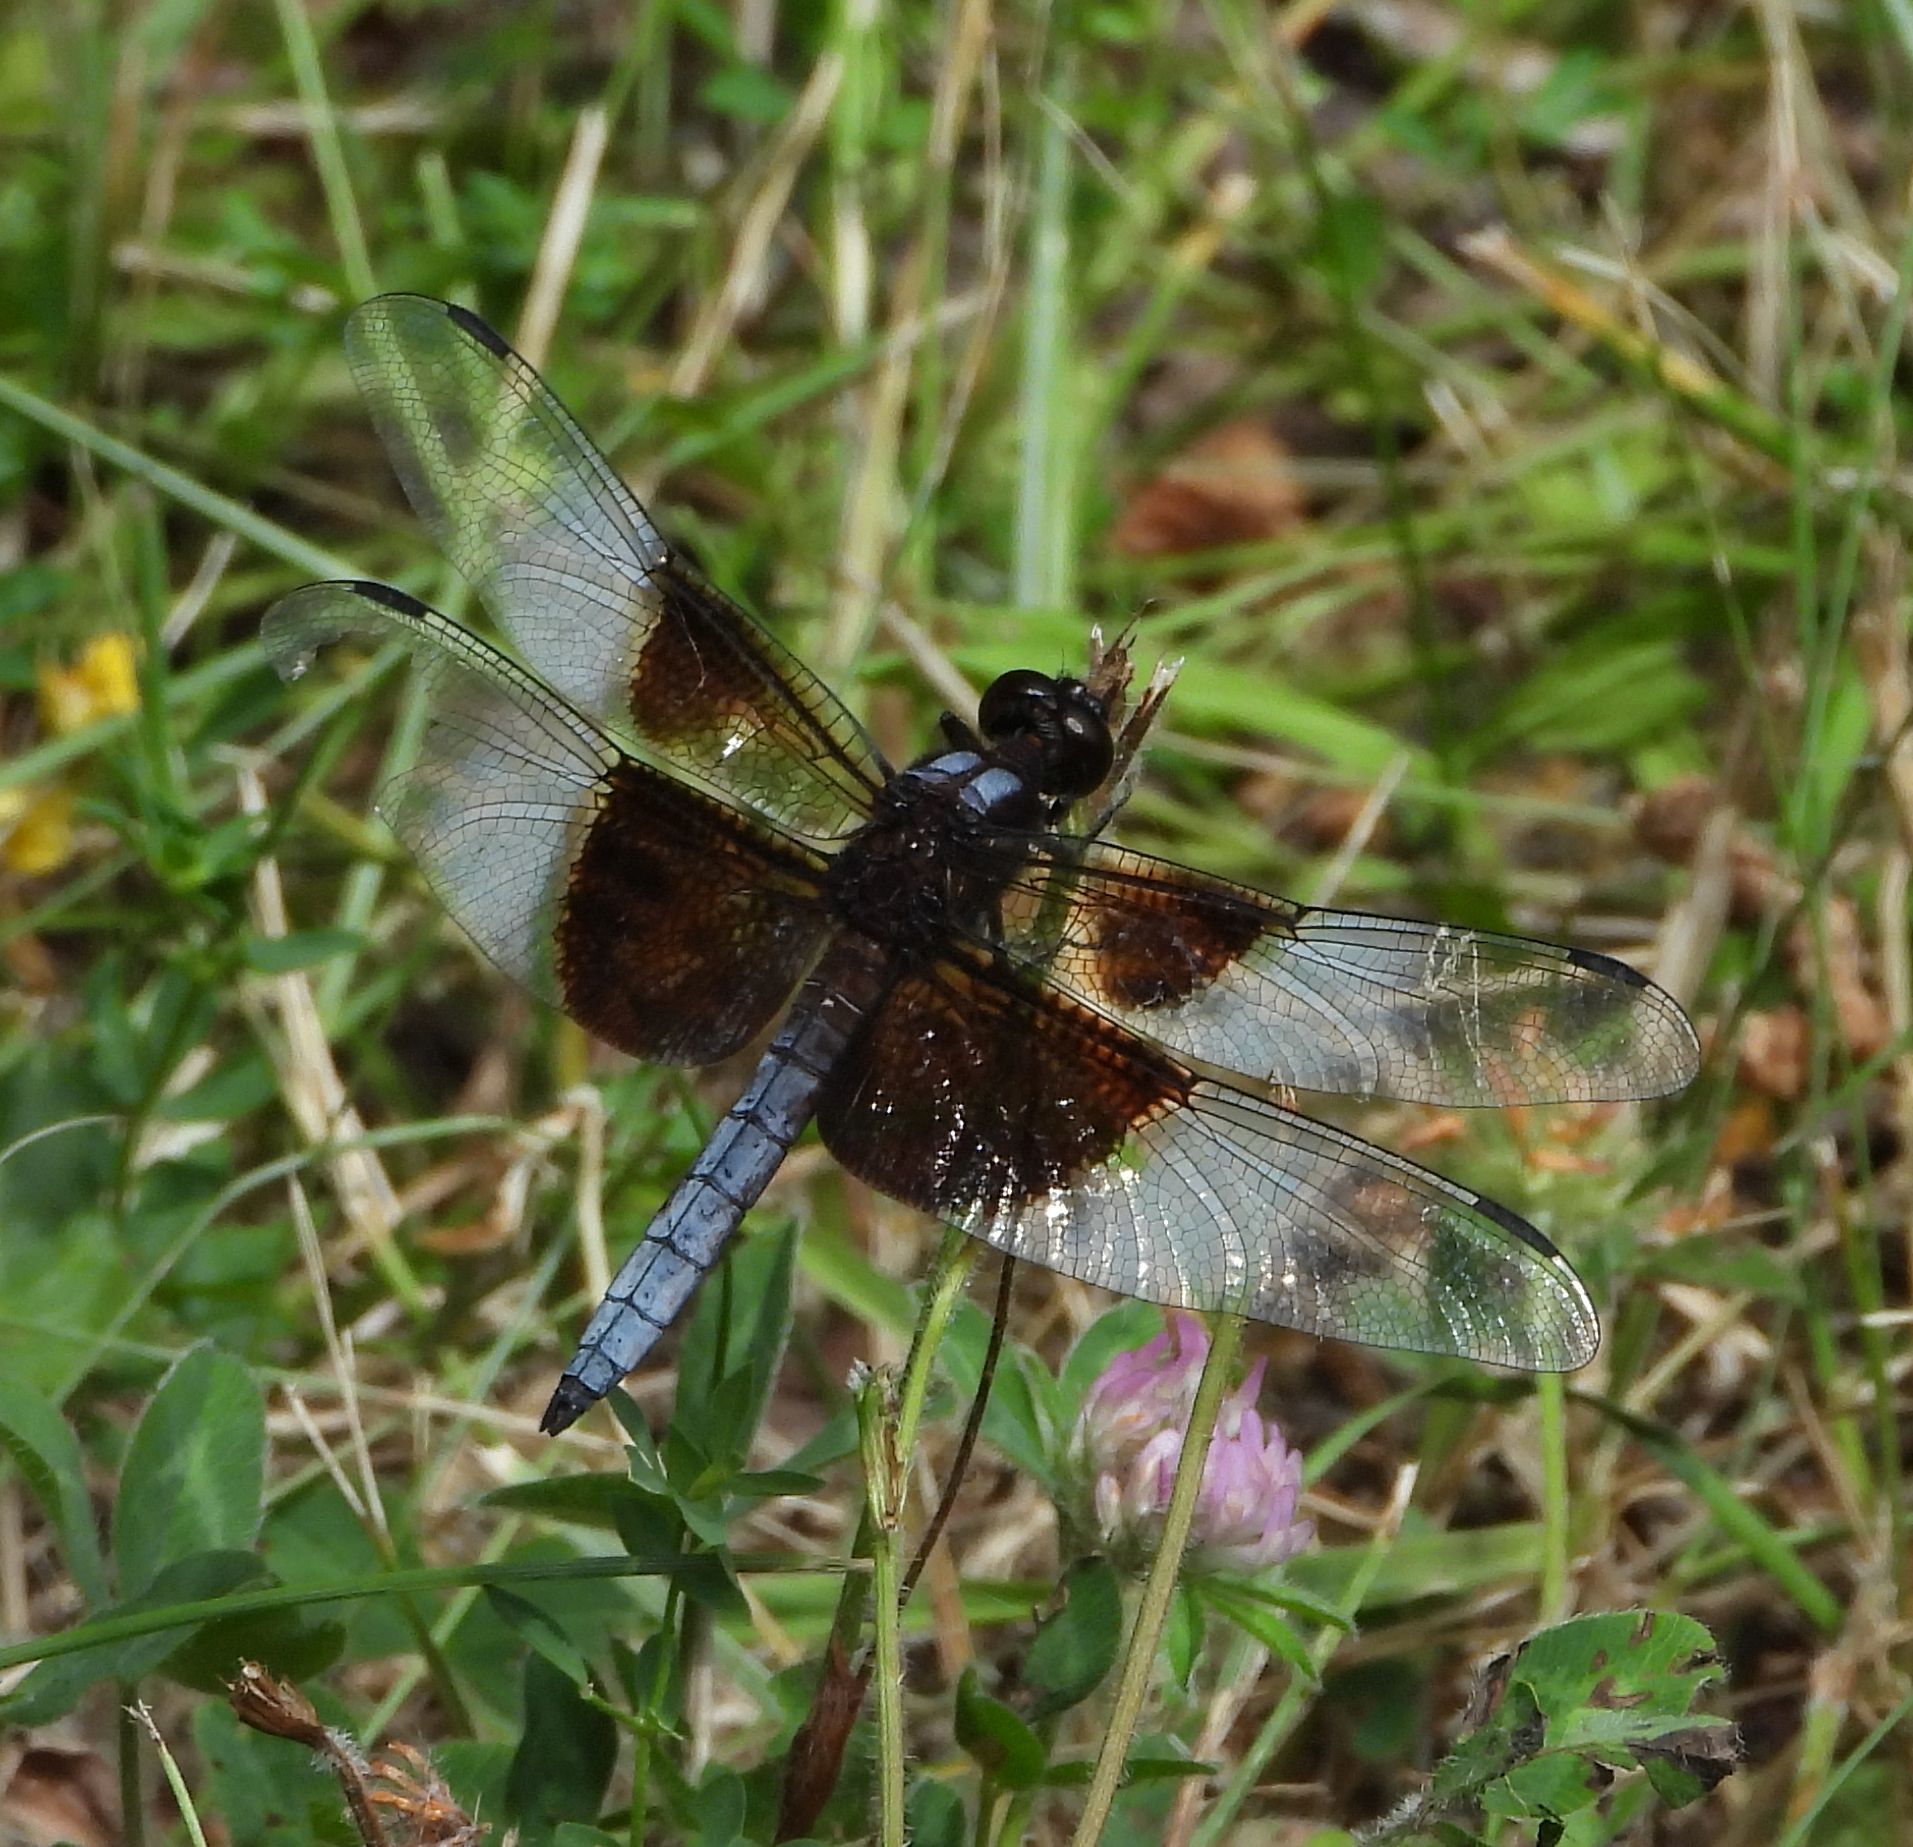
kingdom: Animalia
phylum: Arthropoda
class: Insecta
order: Odonata
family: Libellulidae
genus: Libellula
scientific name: Libellula luctuosa
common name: Widow skimmer
